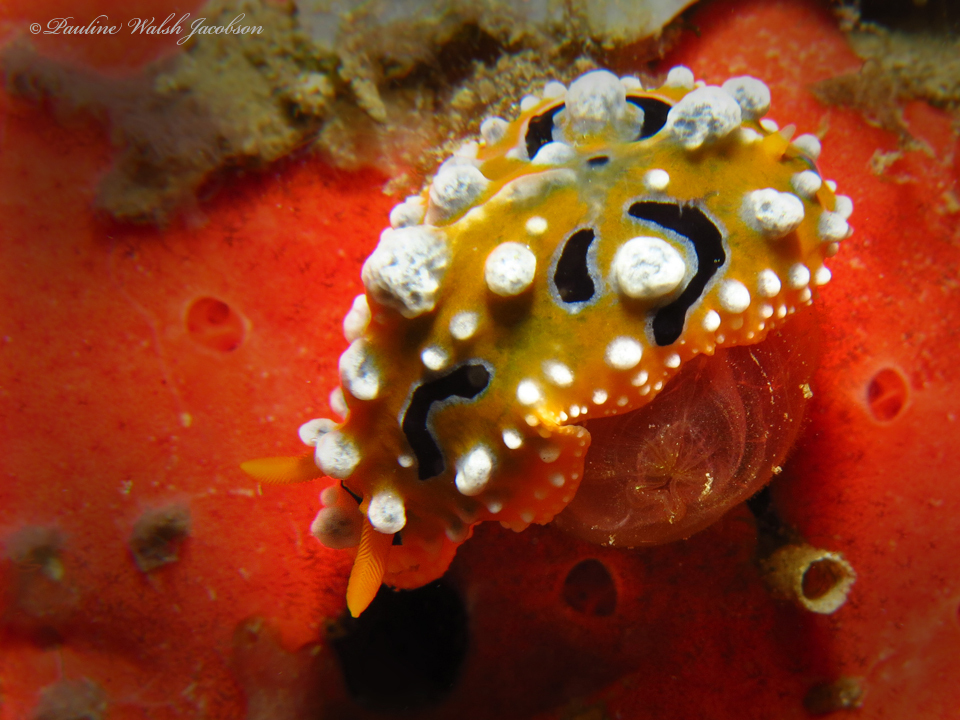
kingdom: Animalia
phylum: Mollusca
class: Gastropoda
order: Nudibranchia
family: Phyllidiidae
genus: Phyllidia
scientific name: Phyllidia ocellata
